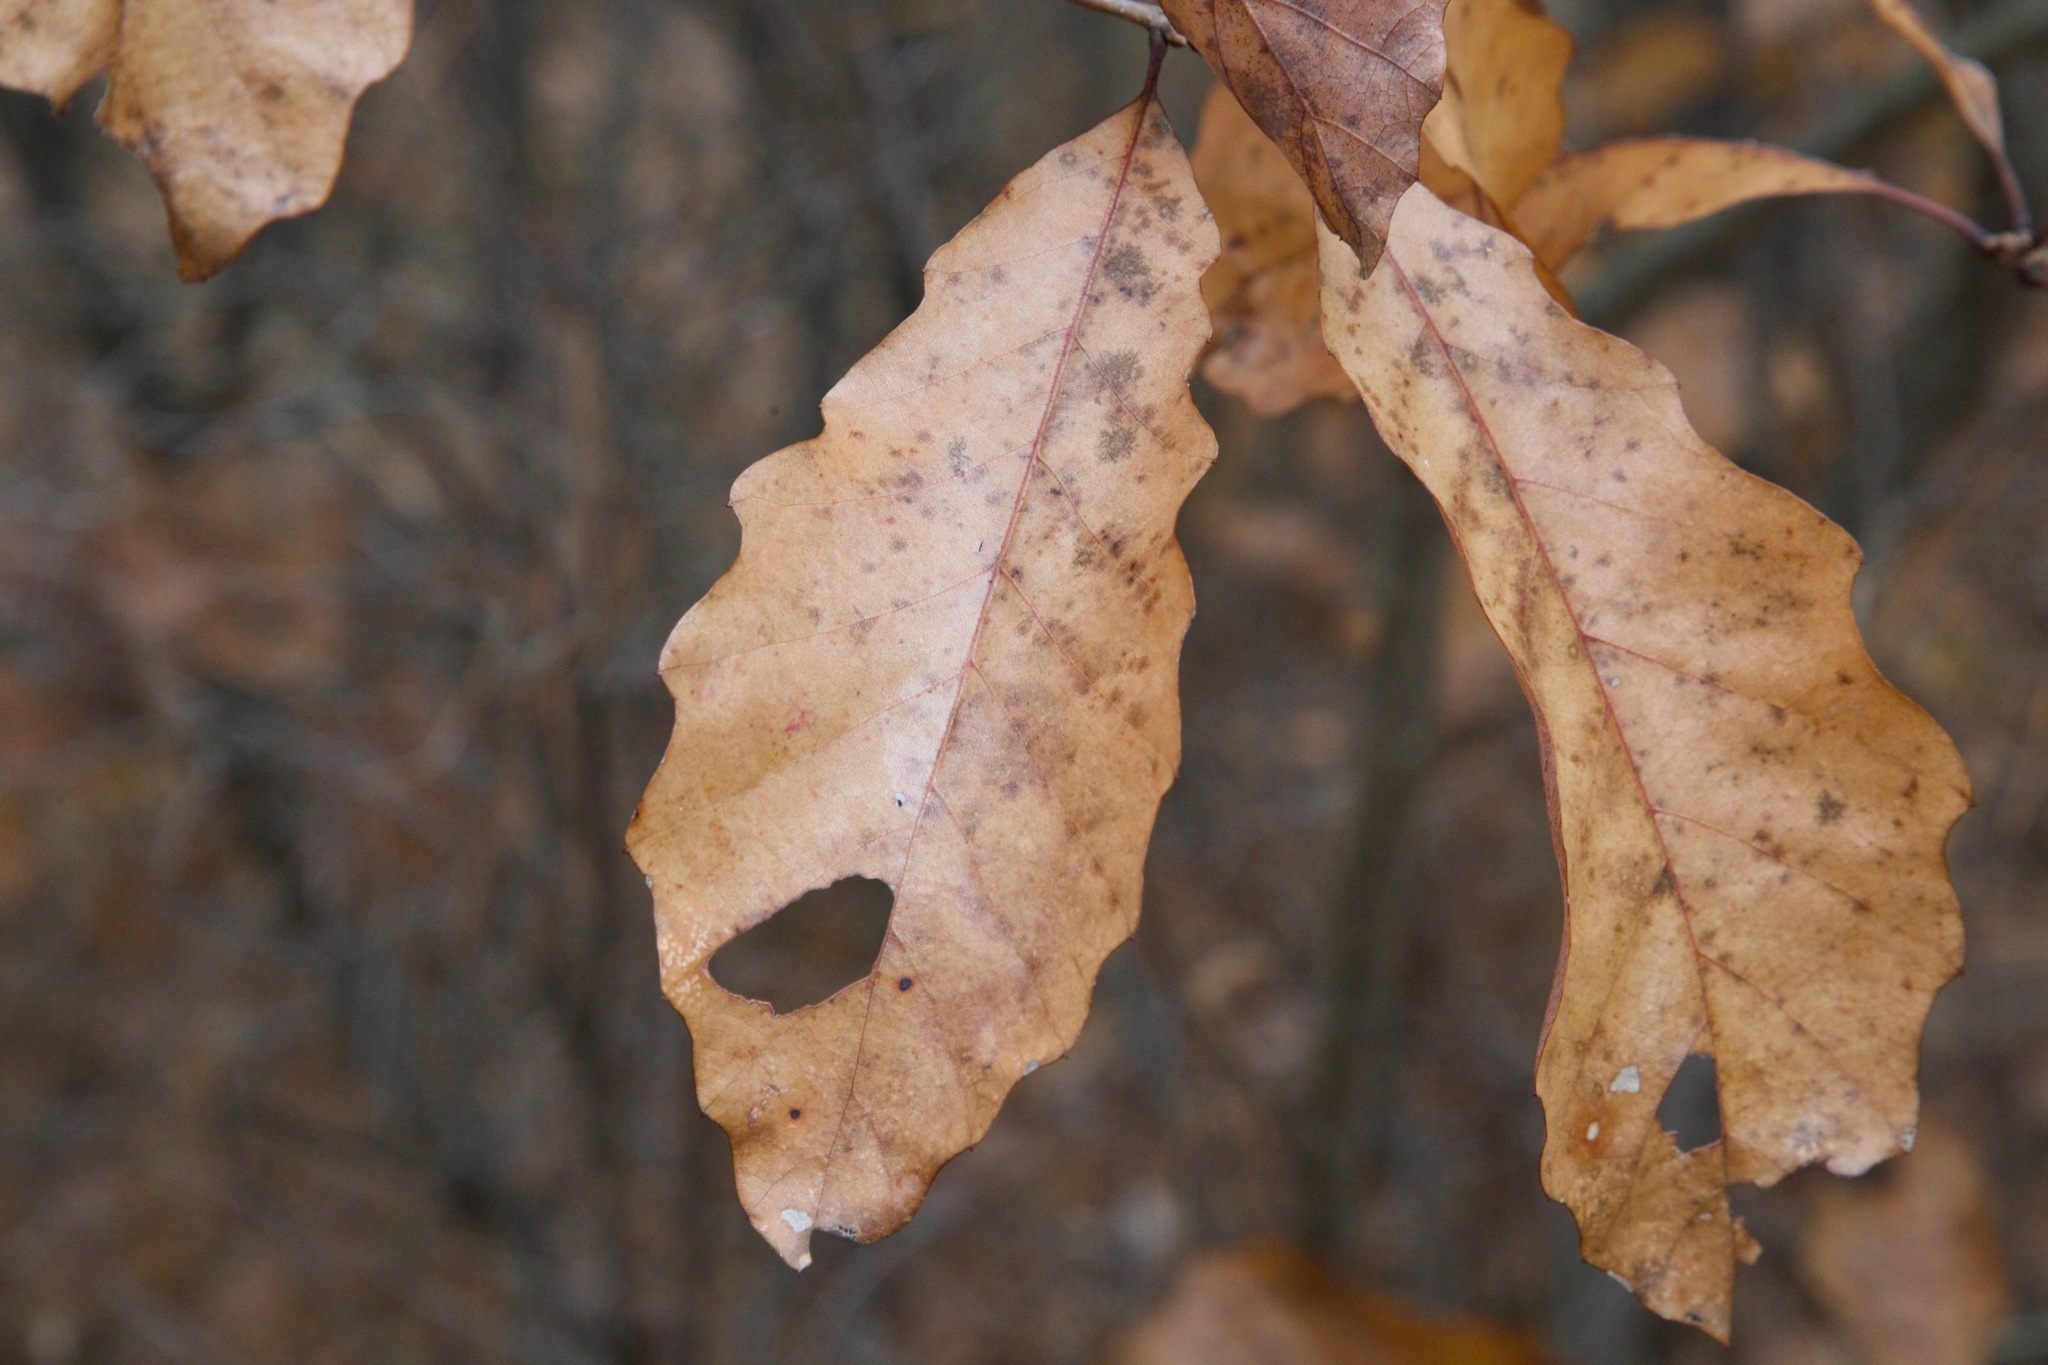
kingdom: Plantae
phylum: Tracheophyta
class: Magnoliopsida
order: Fagales
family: Fagaceae
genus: Quercus
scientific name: Quercus prinoides
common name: Dwarf chinkapin oak
